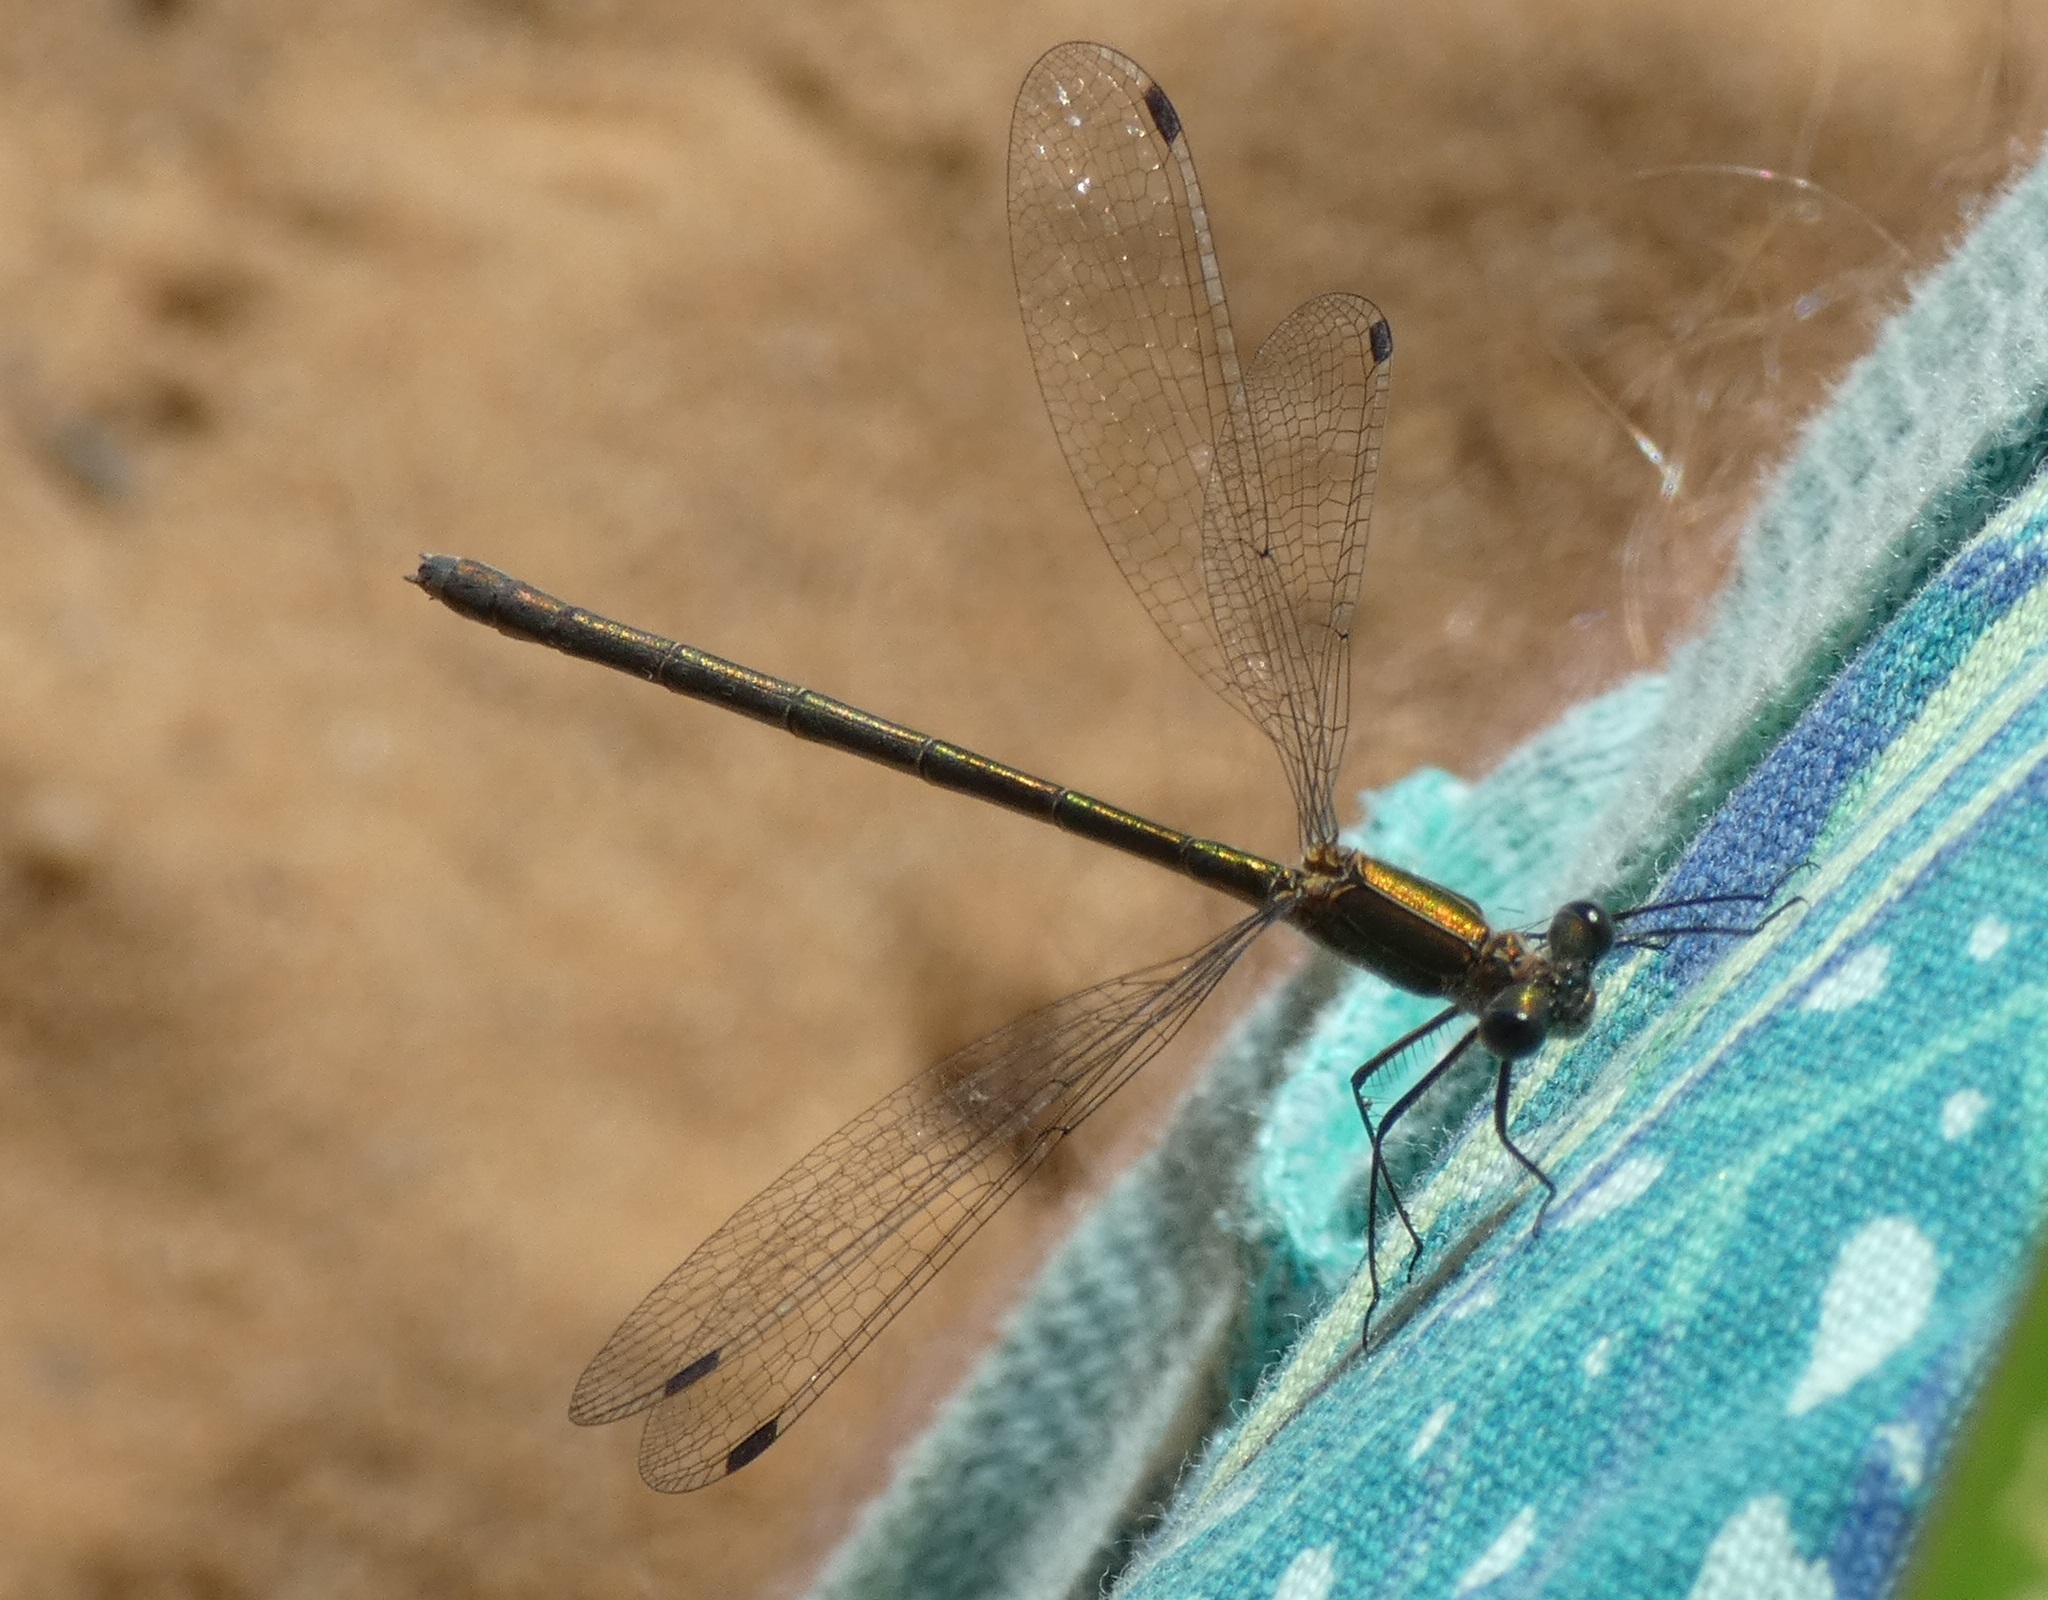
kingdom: Animalia
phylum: Arthropoda
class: Insecta
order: Odonata
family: Lestidae
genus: Lestes
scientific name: Lestes sponsa
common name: Common spreadwing
